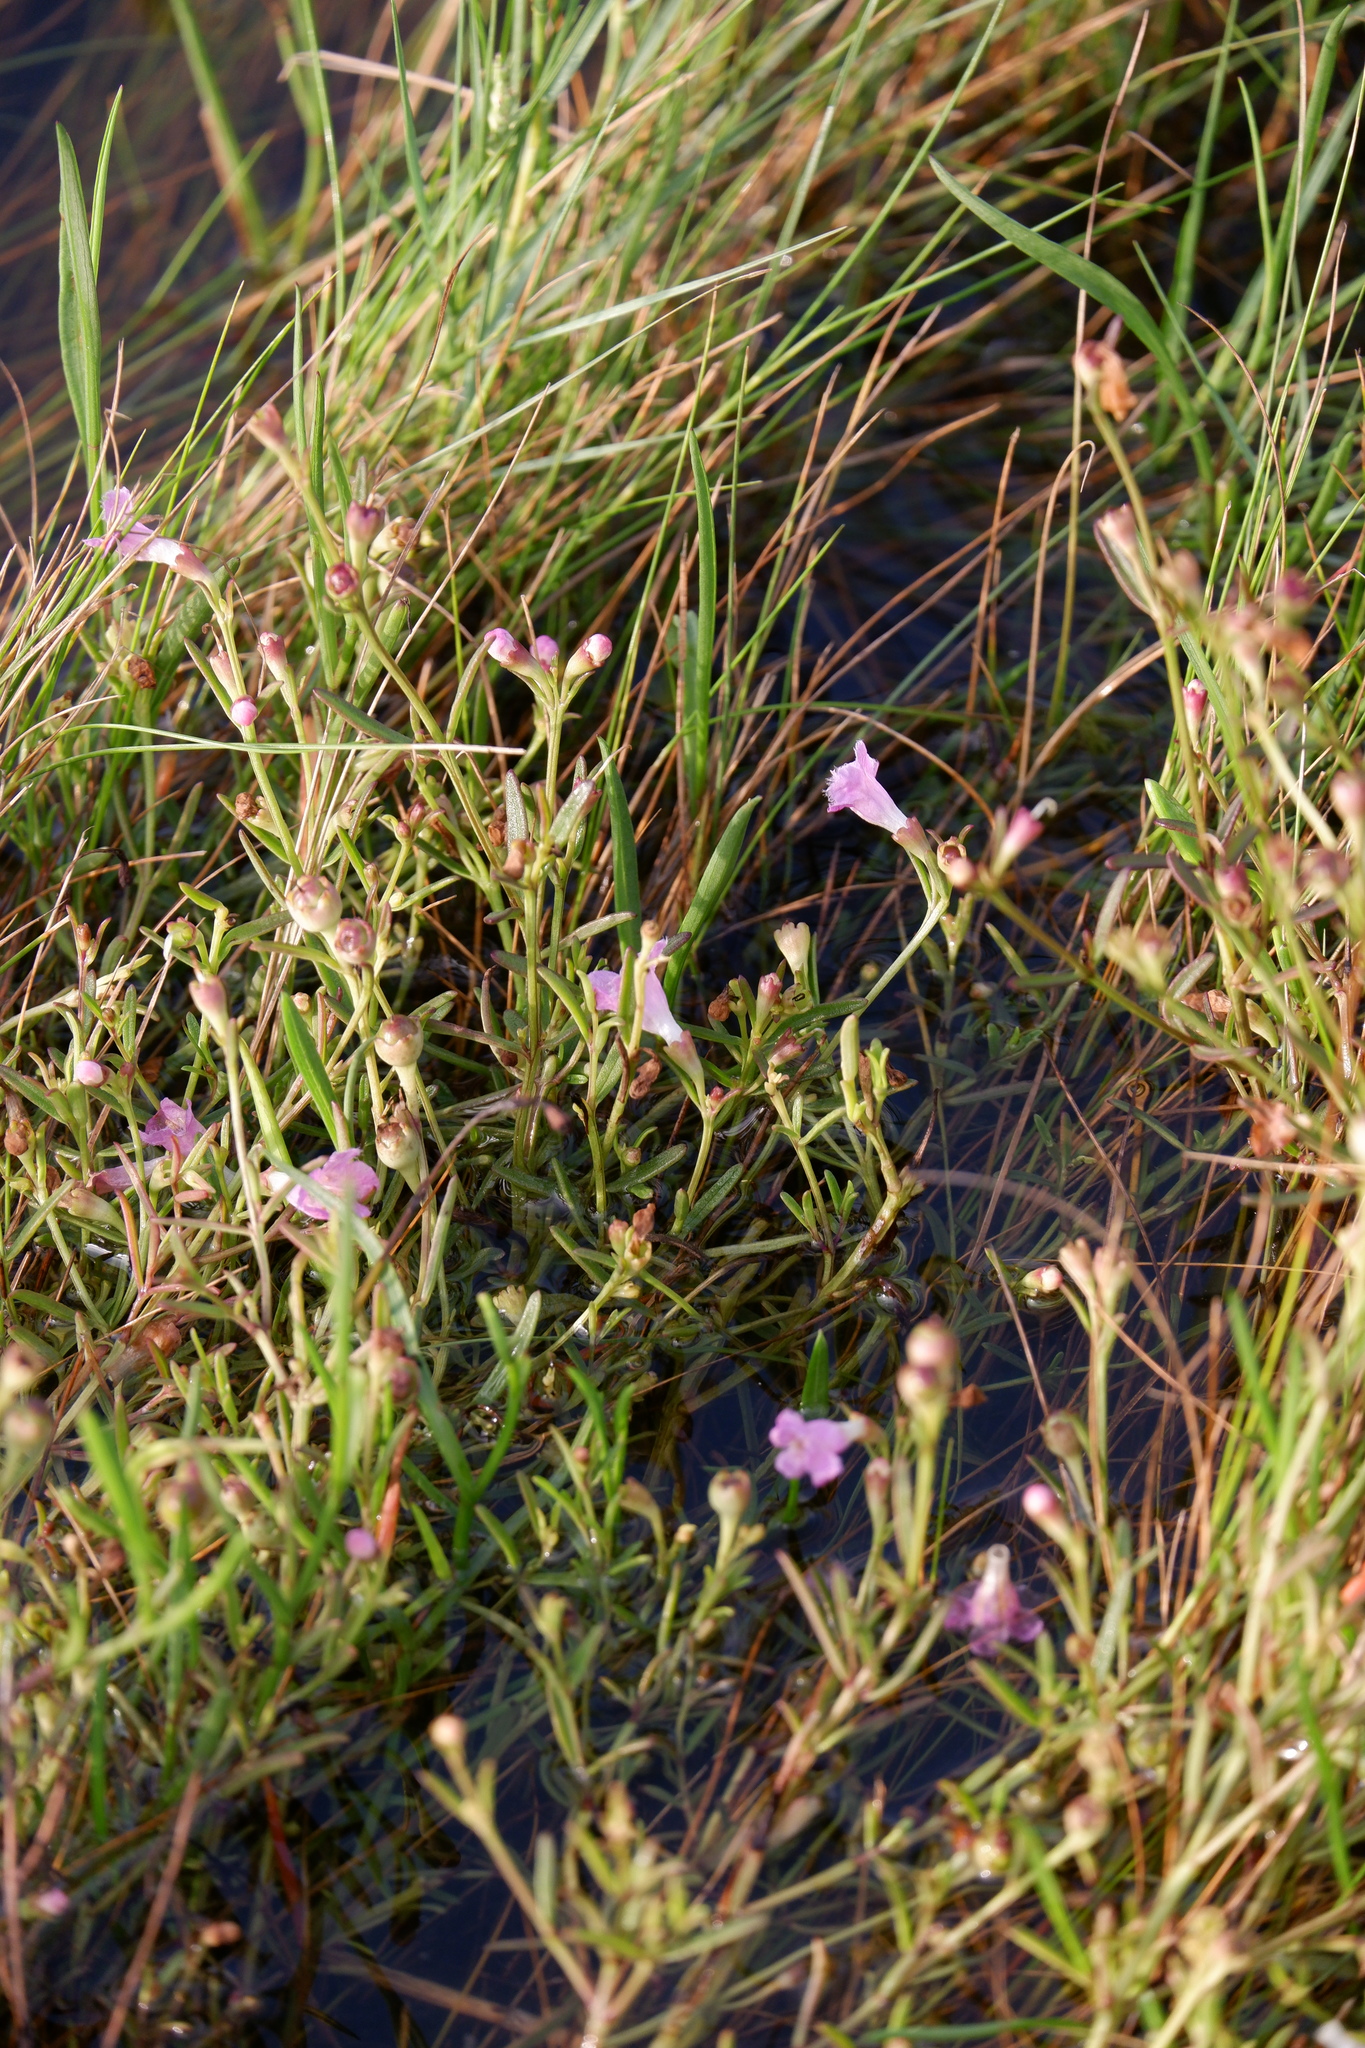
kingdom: Plantae
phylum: Tracheophyta
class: Magnoliopsida
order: Lamiales
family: Orobanchaceae
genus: Agalinis
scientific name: Agalinis maritima
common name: Saltmarsh agalinis
